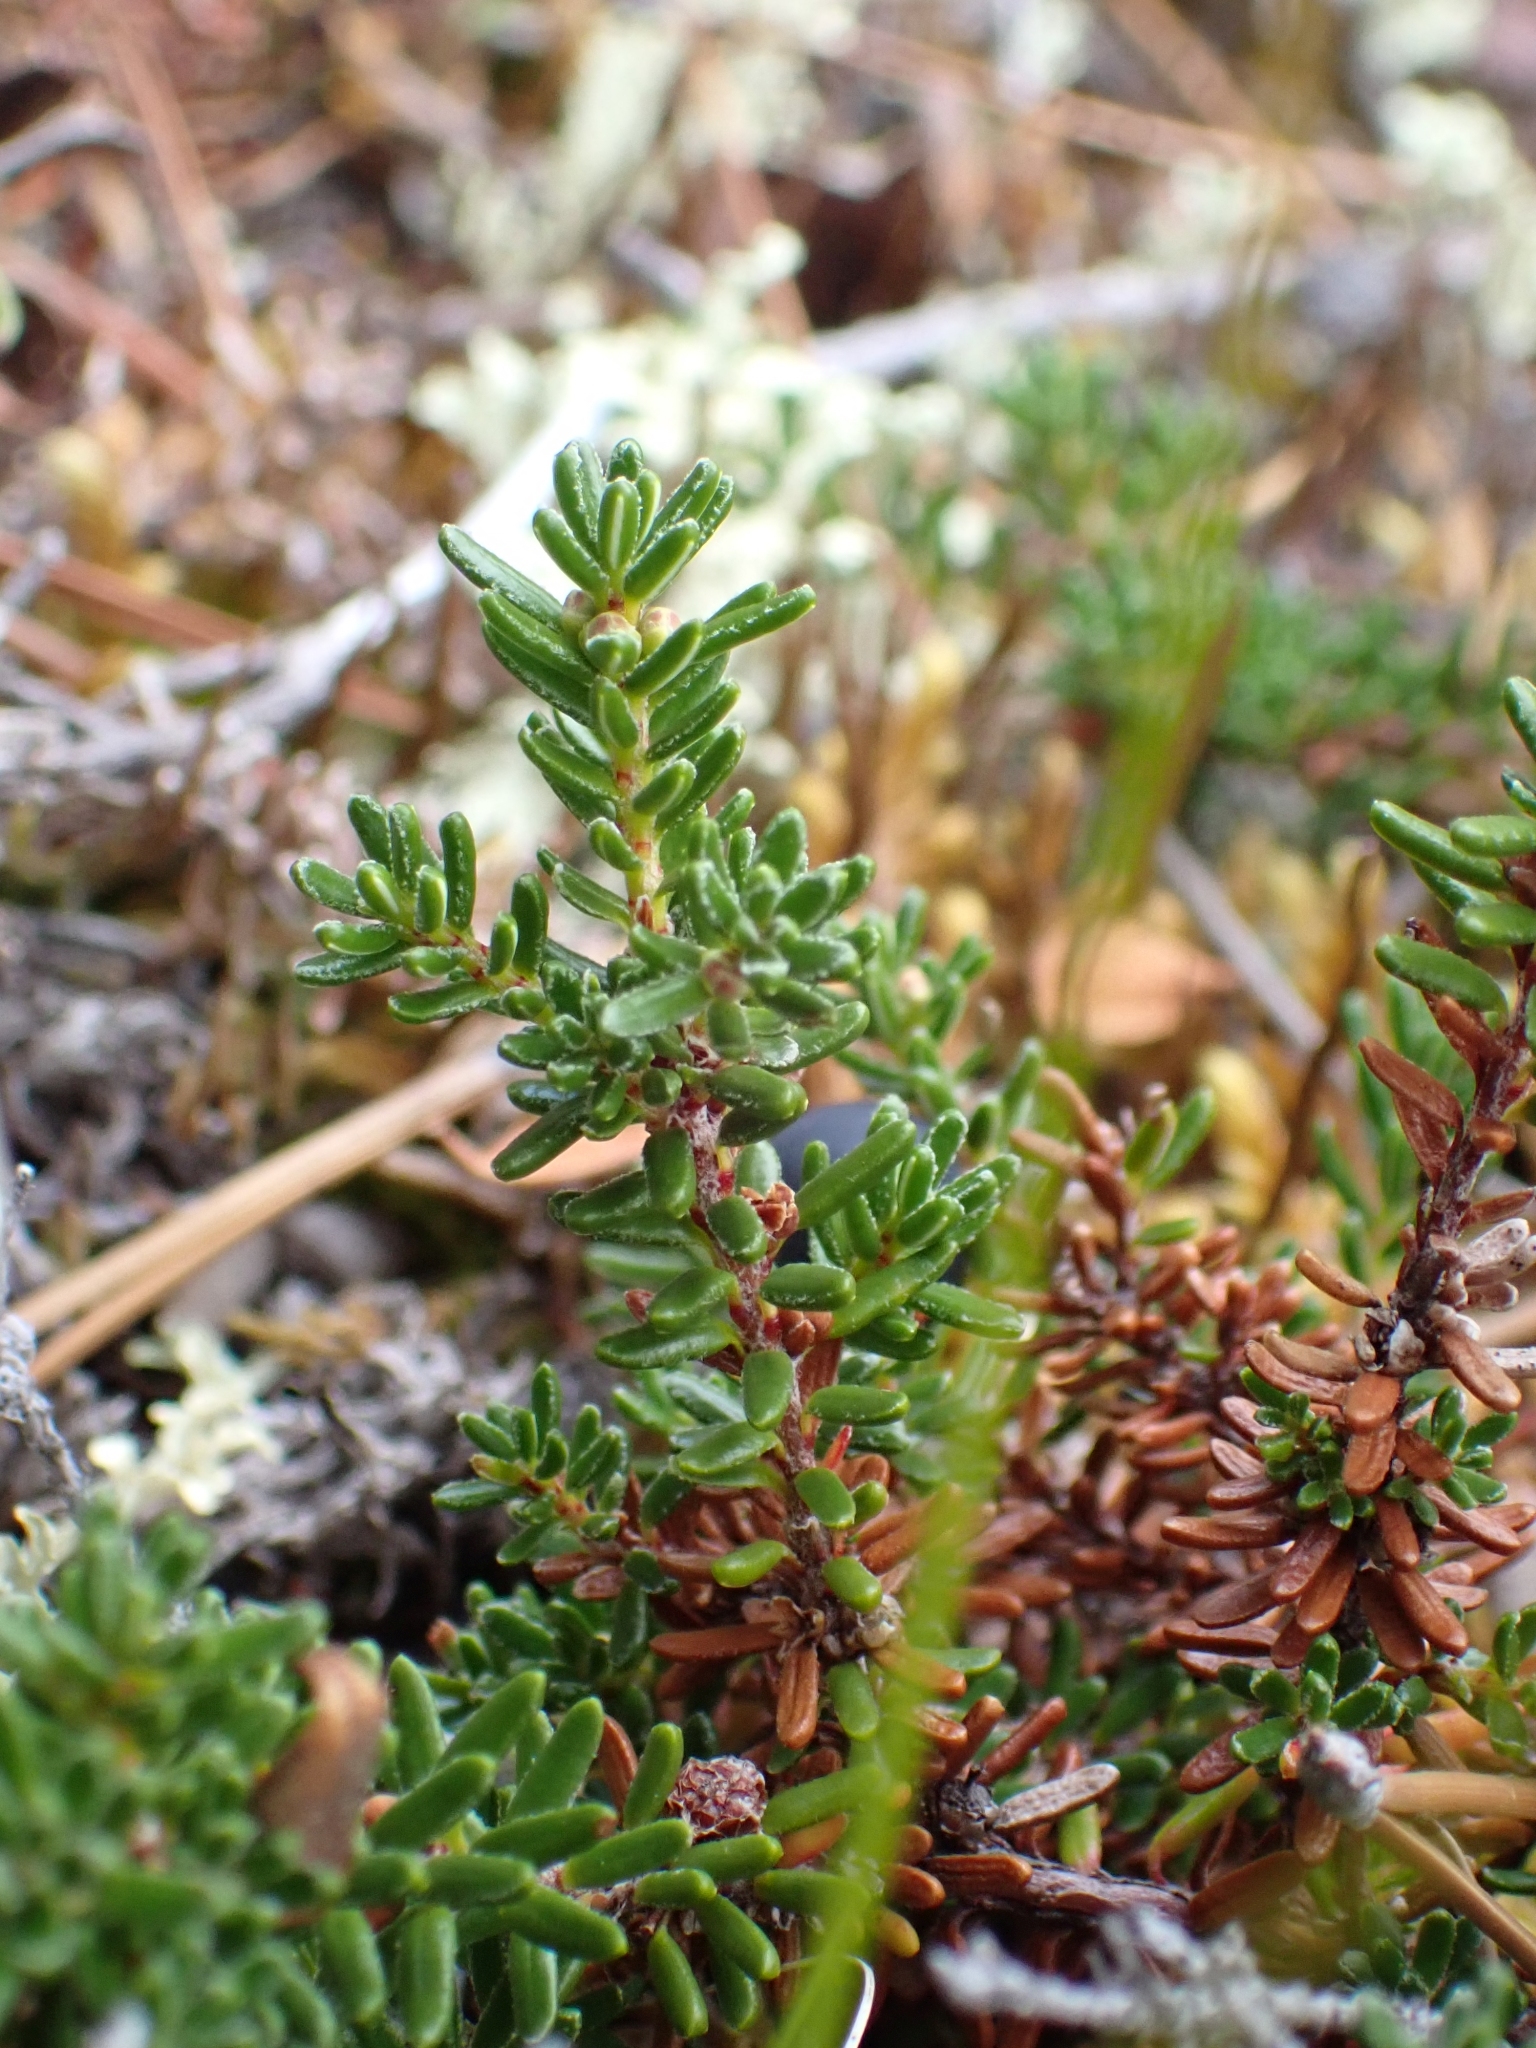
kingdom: Plantae
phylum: Tracheophyta
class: Magnoliopsida
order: Ericales
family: Ericaceae
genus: Empetrum
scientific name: Empetrum nigrum
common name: Black crowberry
